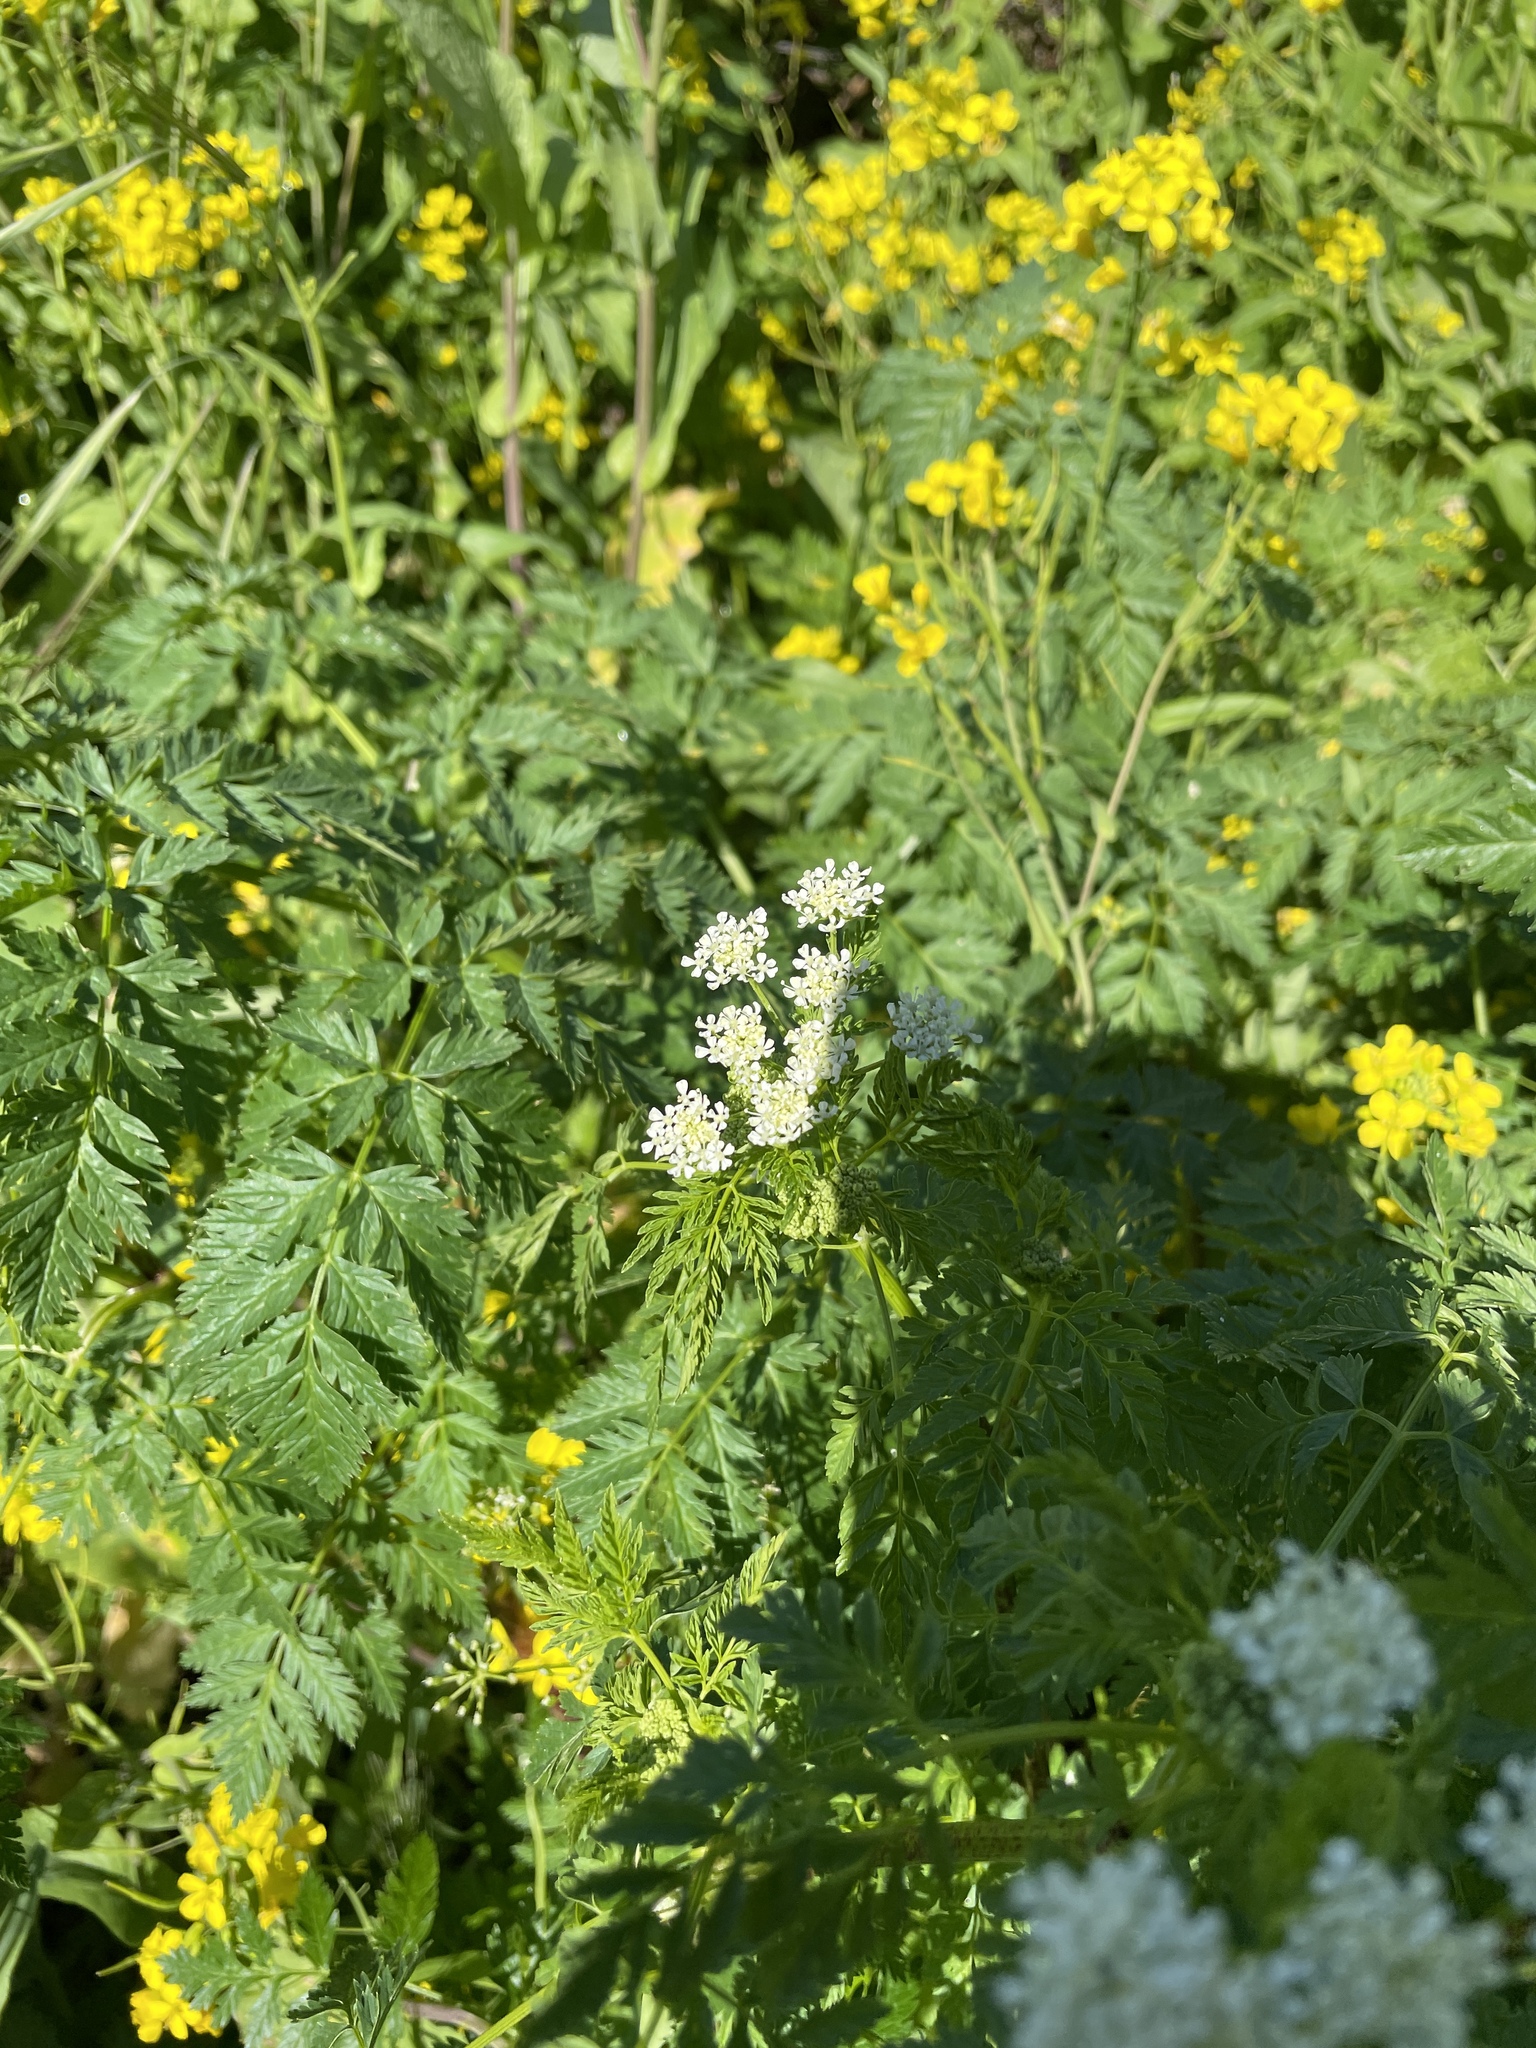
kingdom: Plantae
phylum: Tracheophyta
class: Magnoliopsida
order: Apiales
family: Apiaceae
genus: Conium
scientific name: Conium maculatum
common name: Hemlock
